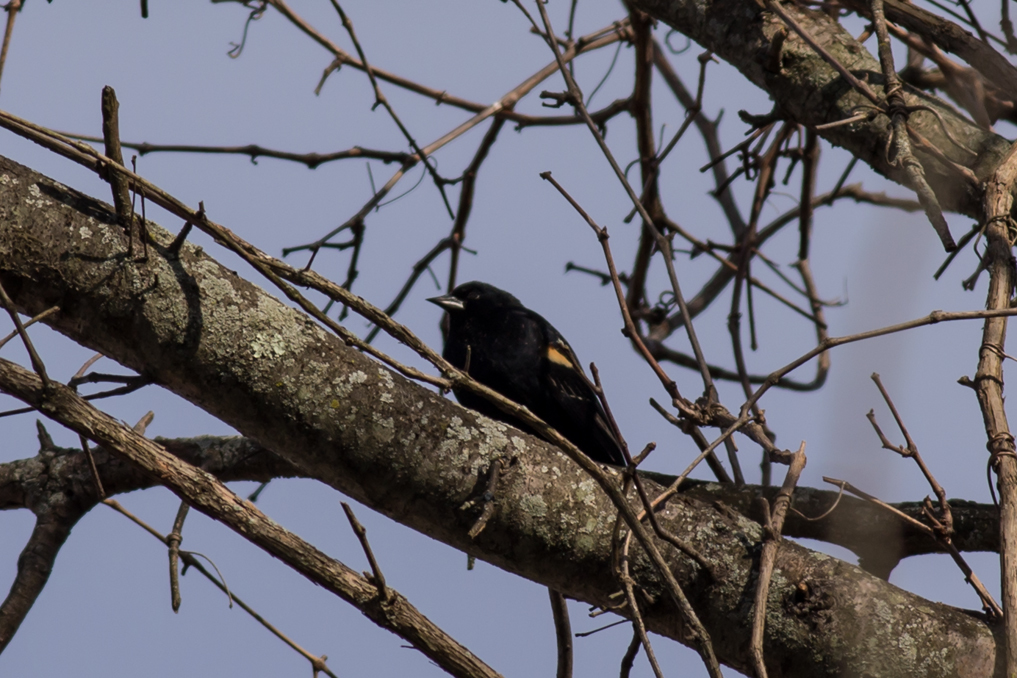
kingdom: Animalia
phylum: Chordata
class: Aves
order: Passeriformes
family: Icteridae
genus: Agelaius
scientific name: Agelaius phoeniceus
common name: Red-winged blackbird
